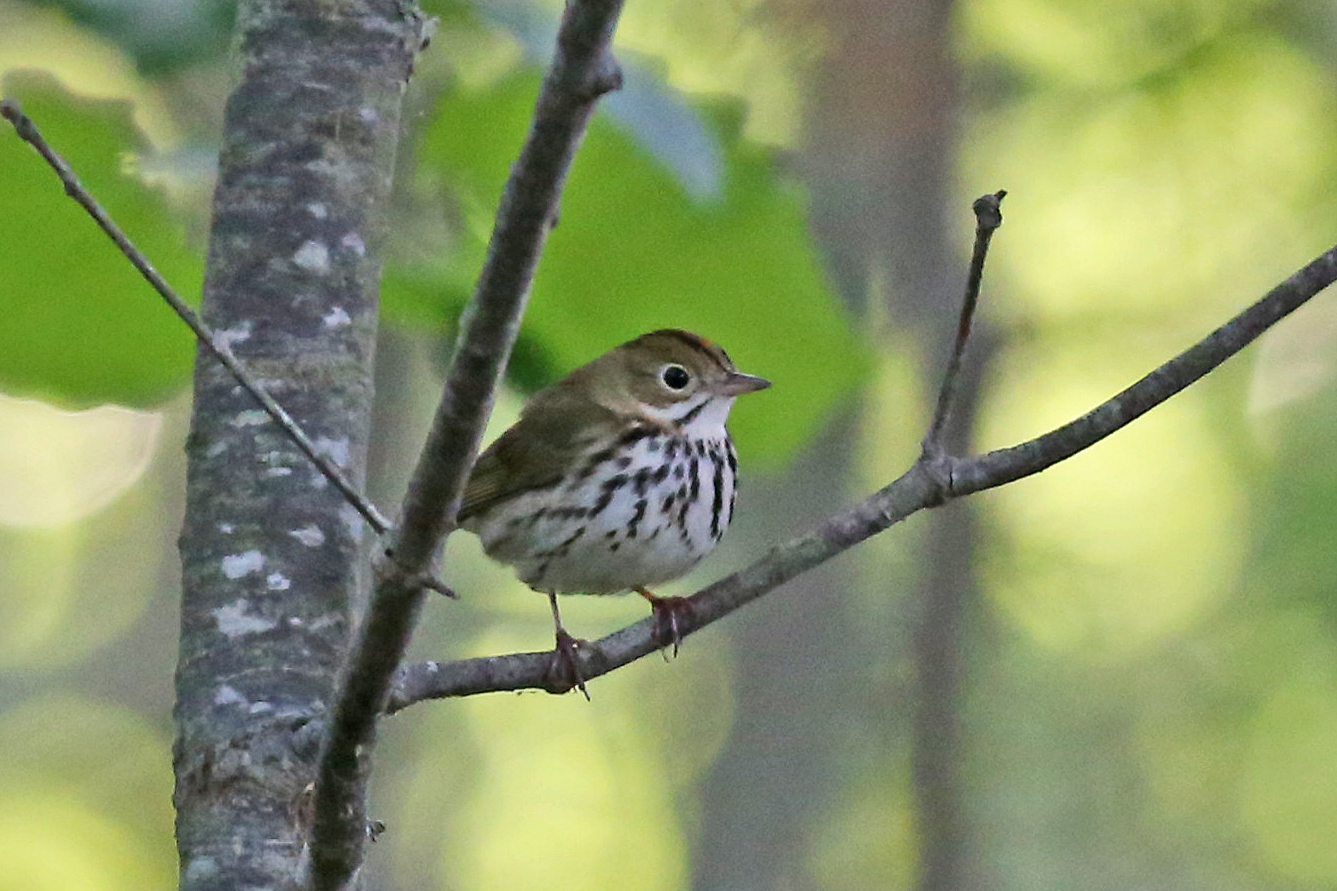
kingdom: Animalia
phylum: Chordata
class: Aves
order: Passeriformes
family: Parulidae
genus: Seiurus
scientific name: Seiurus aurocapilla
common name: Ovenbird
